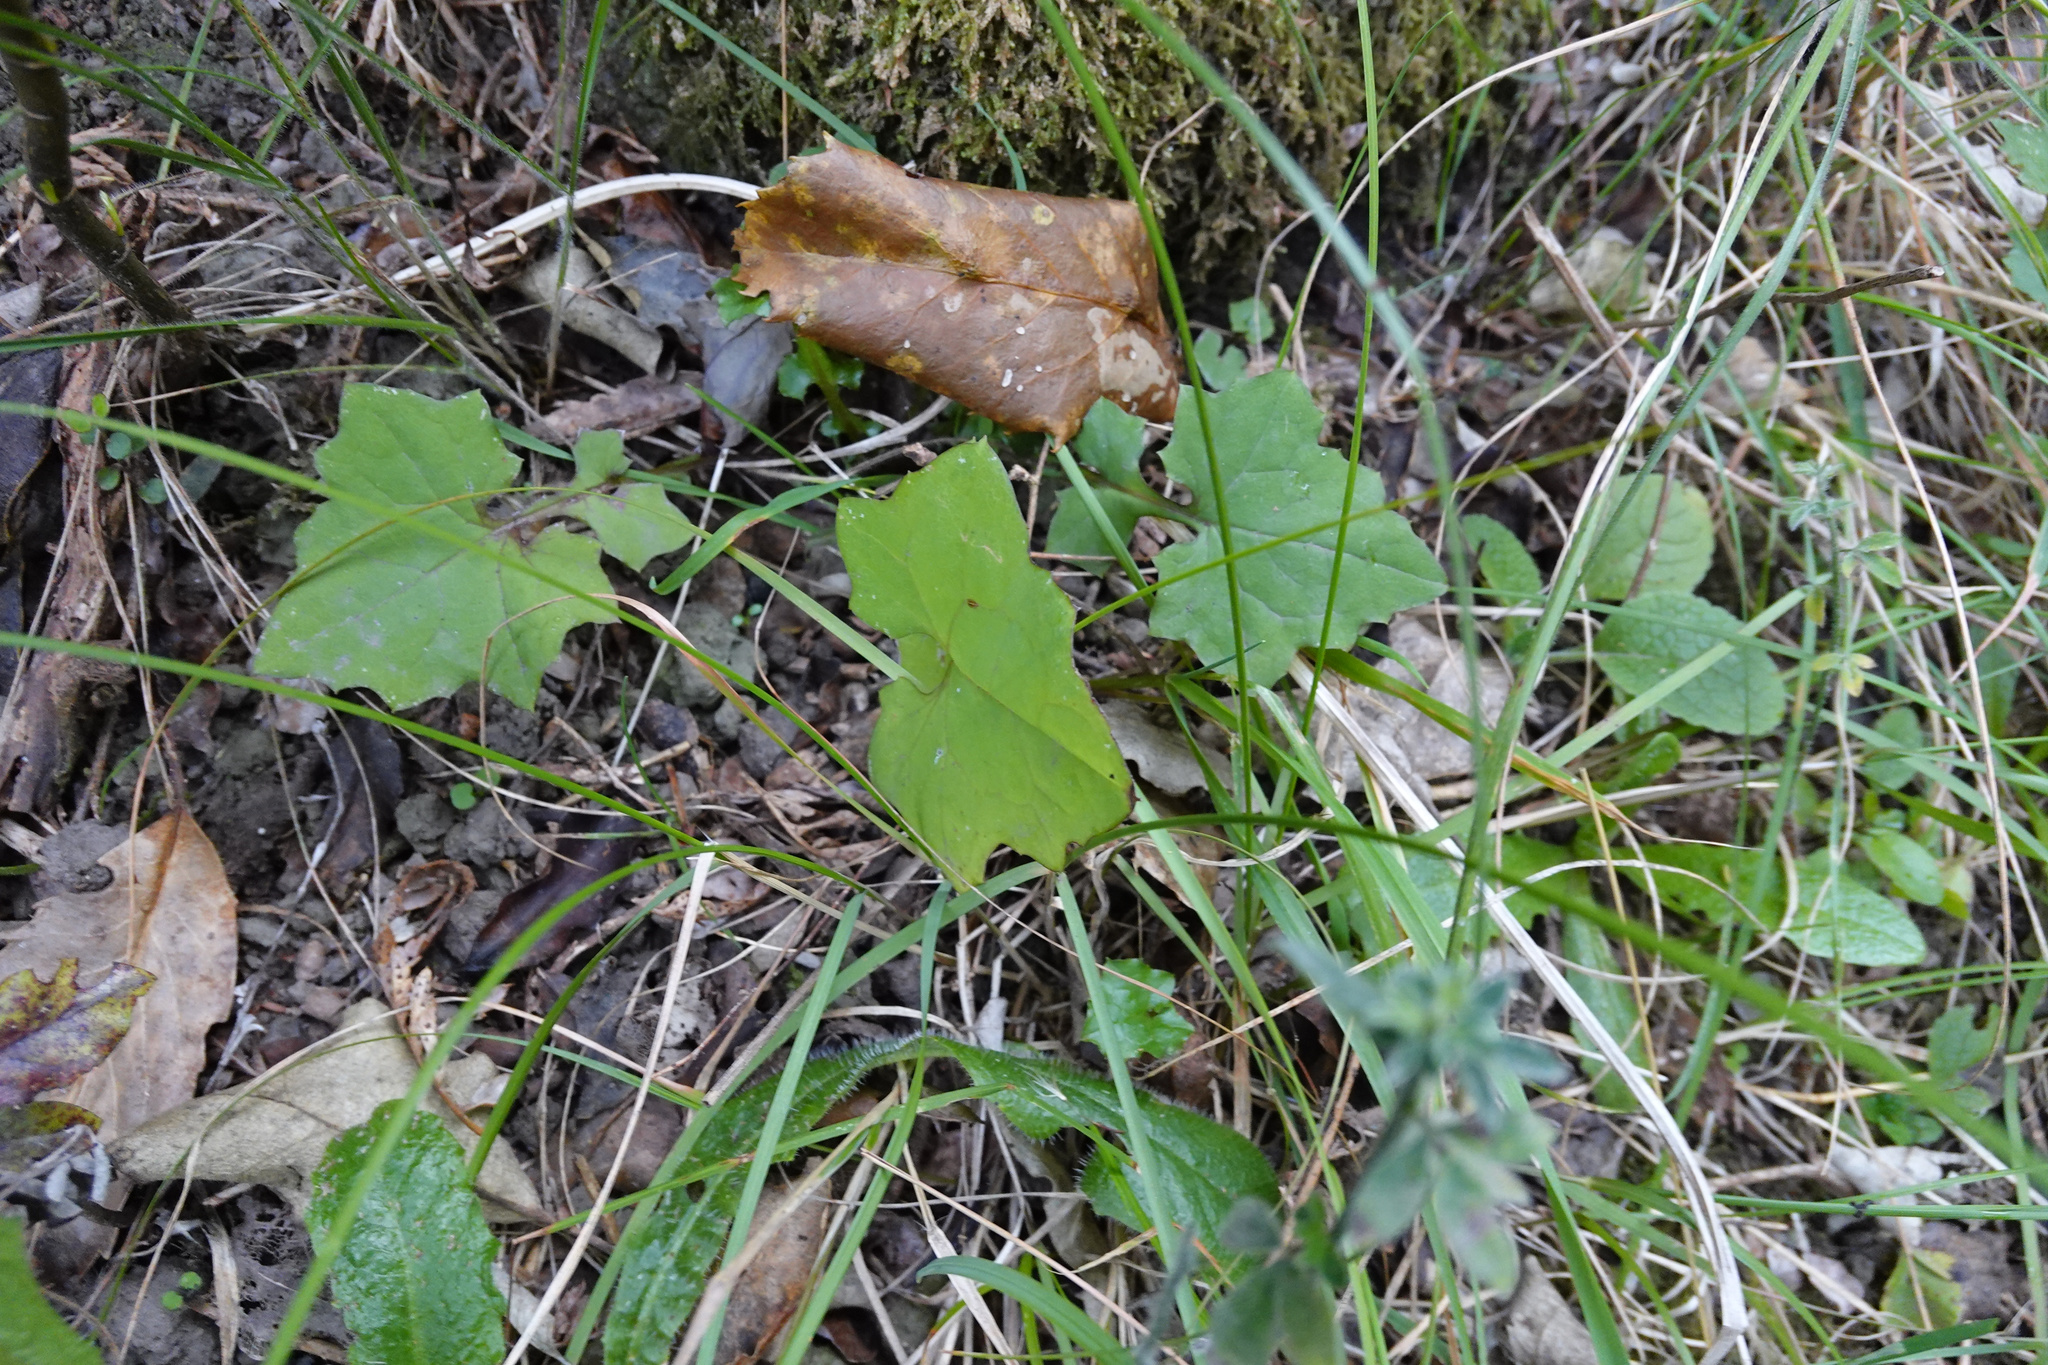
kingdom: Plantae
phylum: Tracheophyta
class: Magnoliopsida
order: Asterales
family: Asteraceae
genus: Mycelis
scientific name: Mycelis muralis
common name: Wall lettuce
